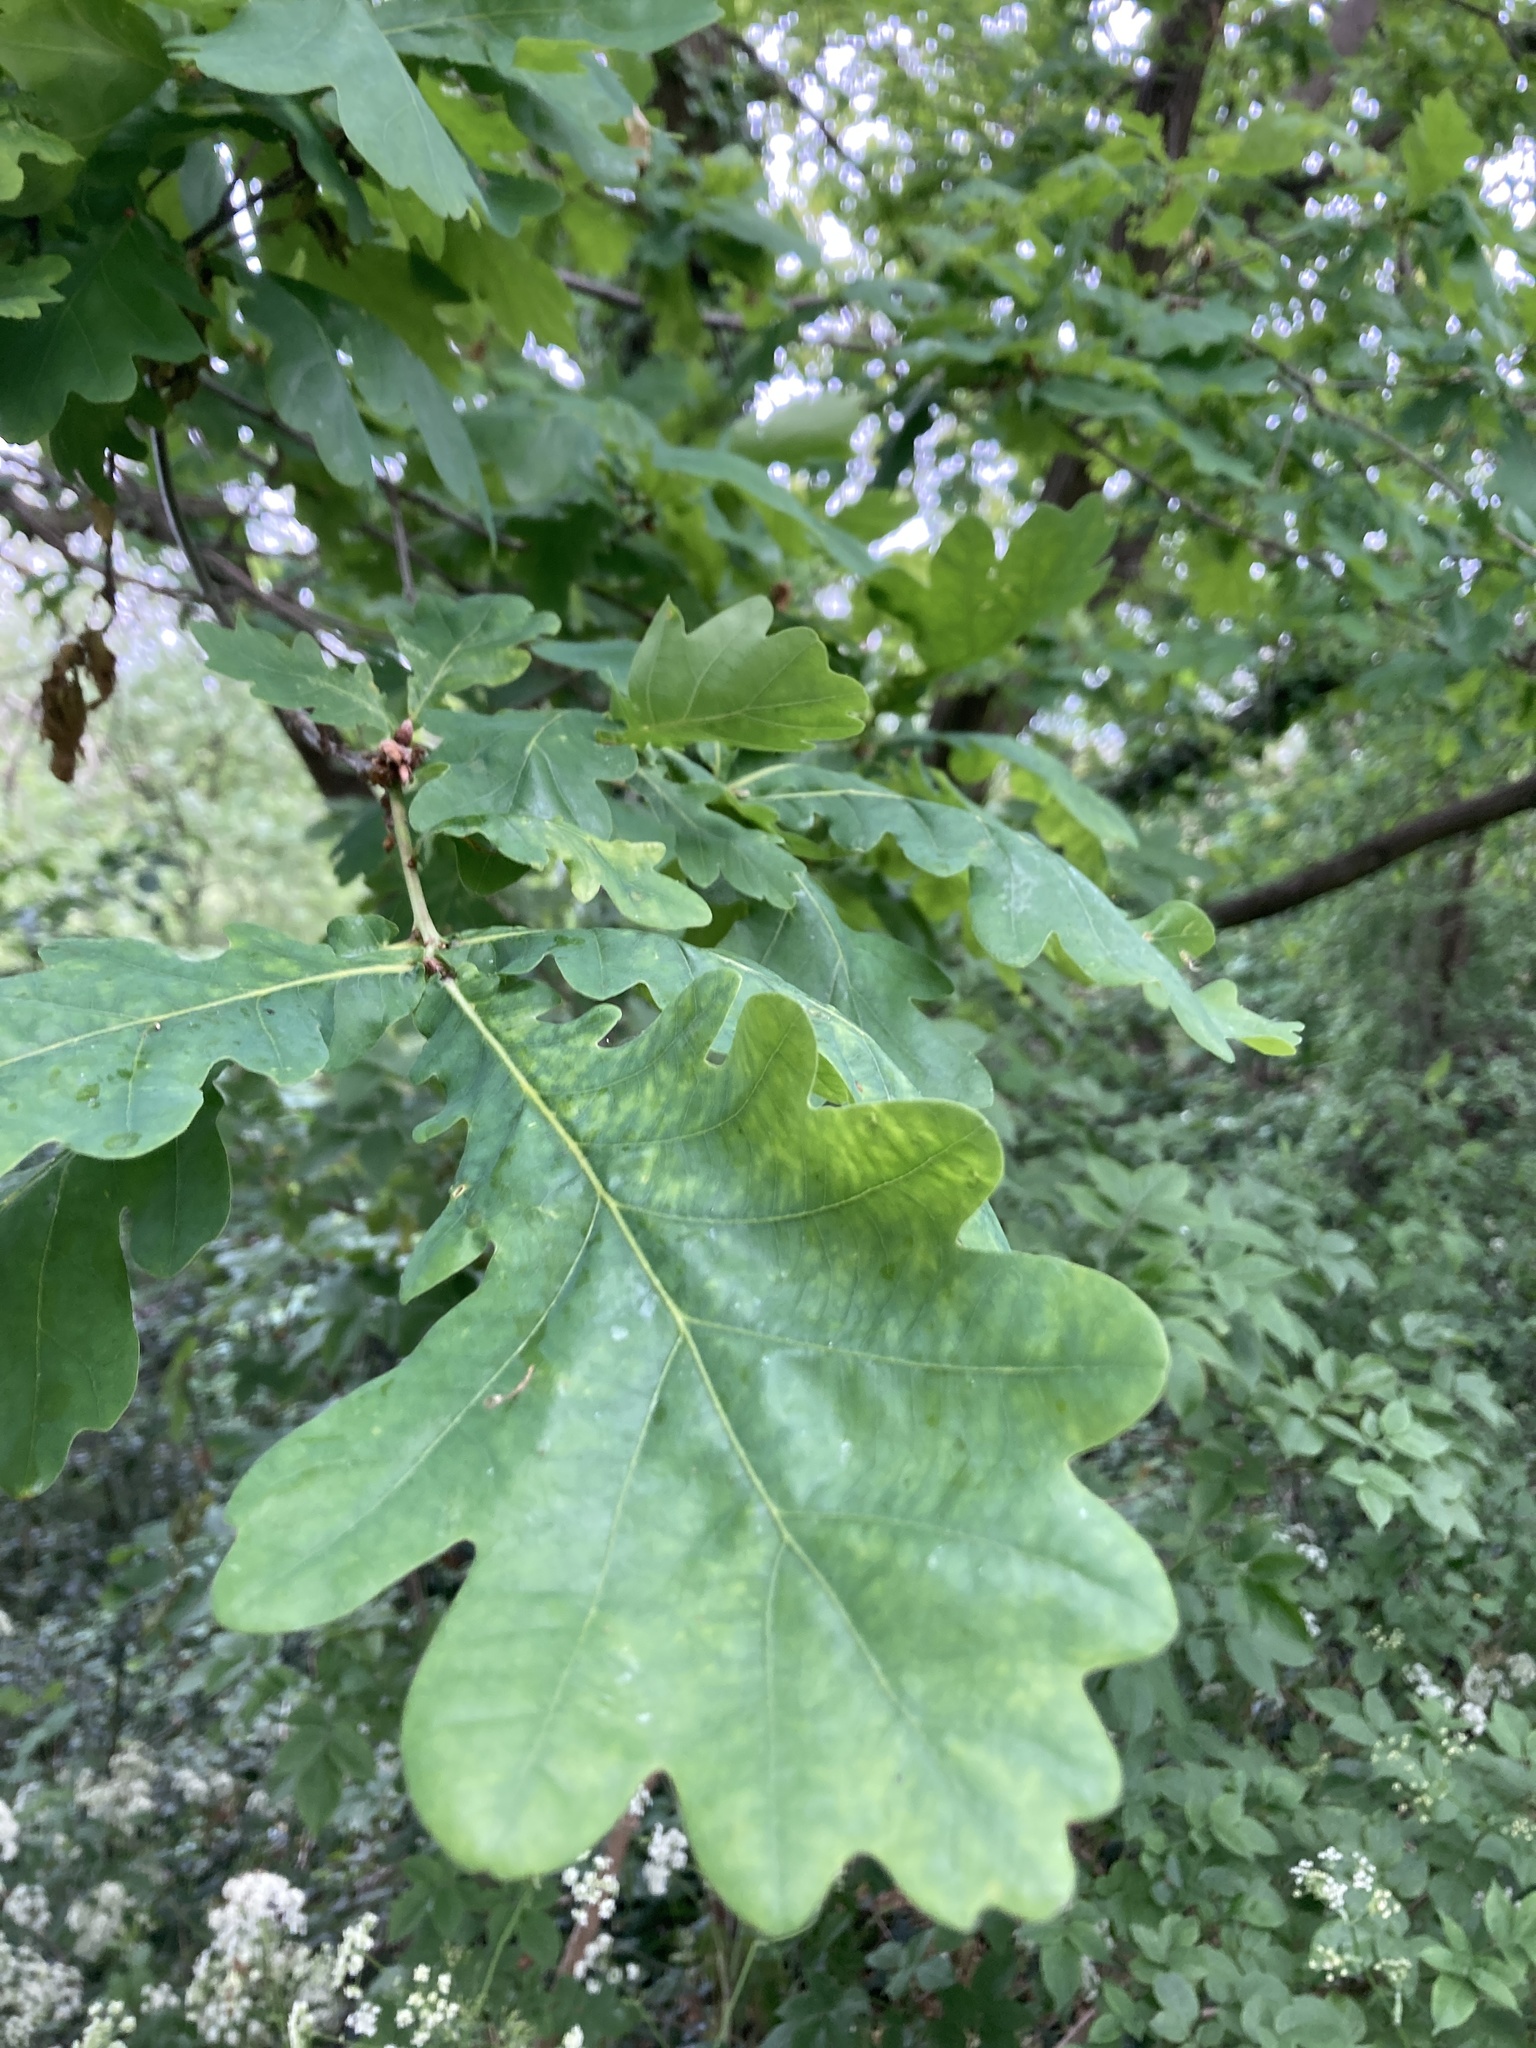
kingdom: Plantae
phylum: Tracheophyta
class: Magnoliopsida
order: Fagales
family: Fagaceae
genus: Quercus
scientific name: Quercus robur
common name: Pedunculate oak
